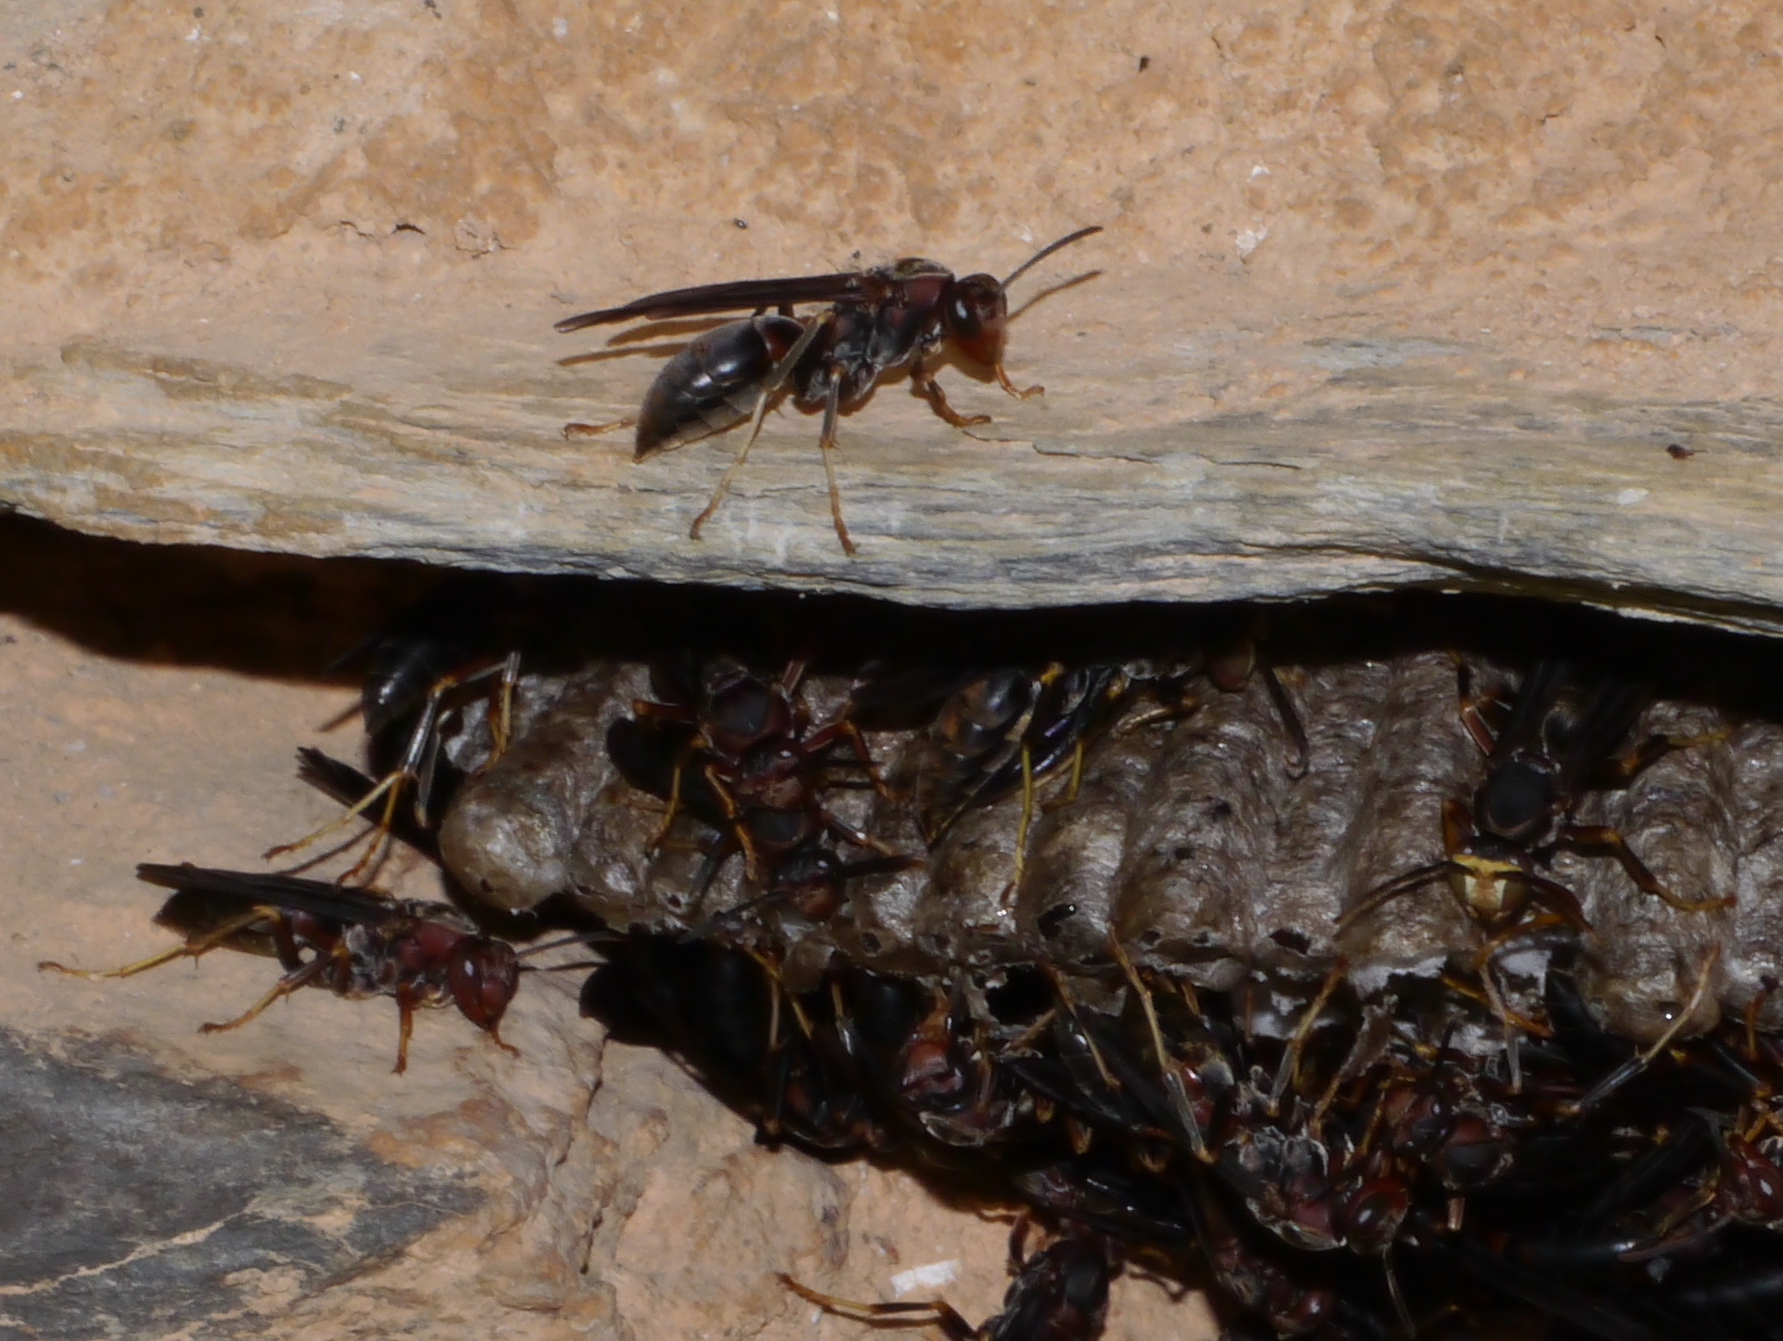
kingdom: Animalia
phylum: Arthropoda
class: Insecta
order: Hymenoptera
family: Eumenidae
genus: Polistes
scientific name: Polistes metricus
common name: Metric paper wasp
